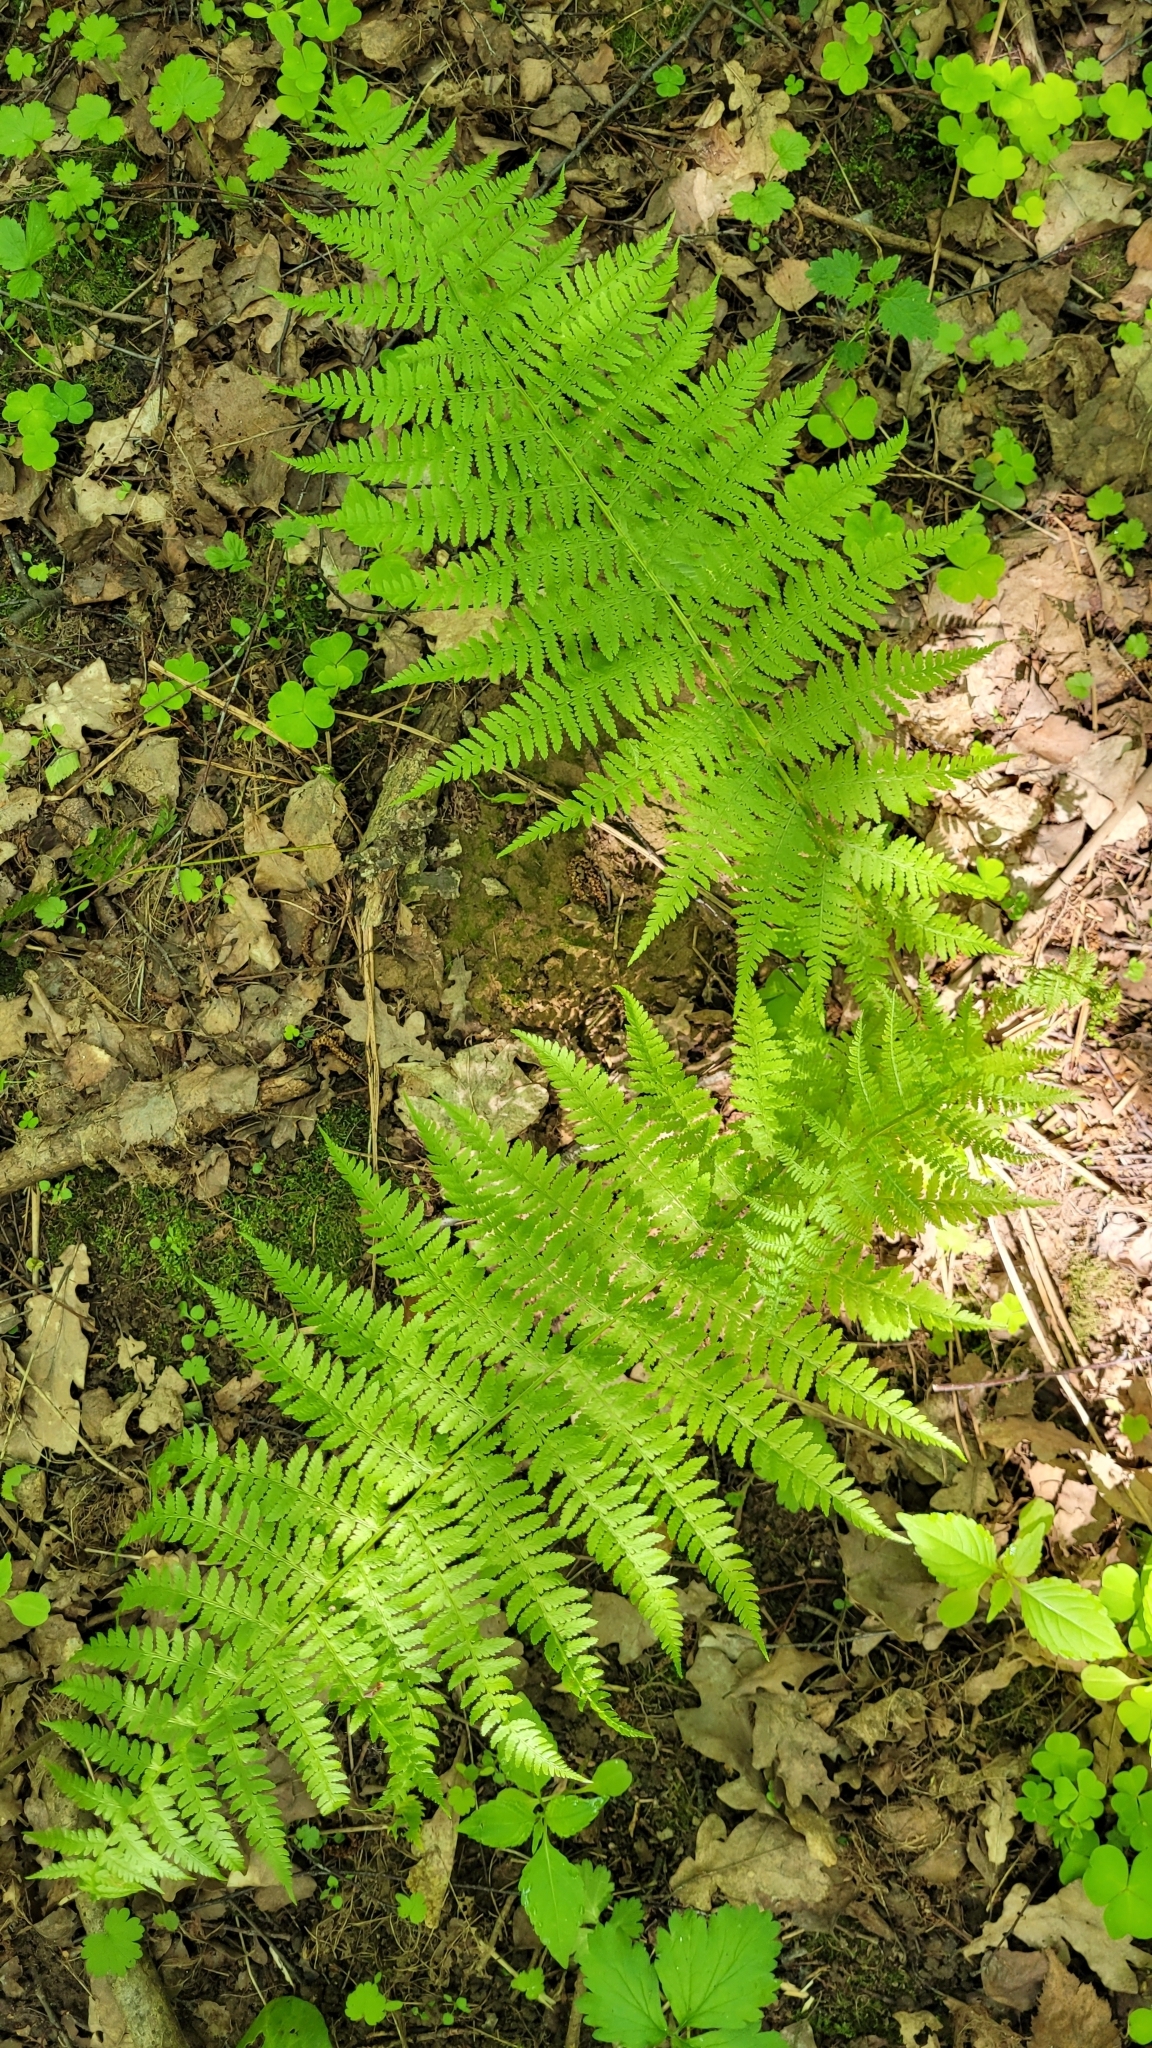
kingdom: Plantae
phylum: Tracheophyta
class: Polypodiopsida
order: Polypodiales
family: Athyriaceae
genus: Athyrium
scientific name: Athyrium filix-femina
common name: Lady fern
